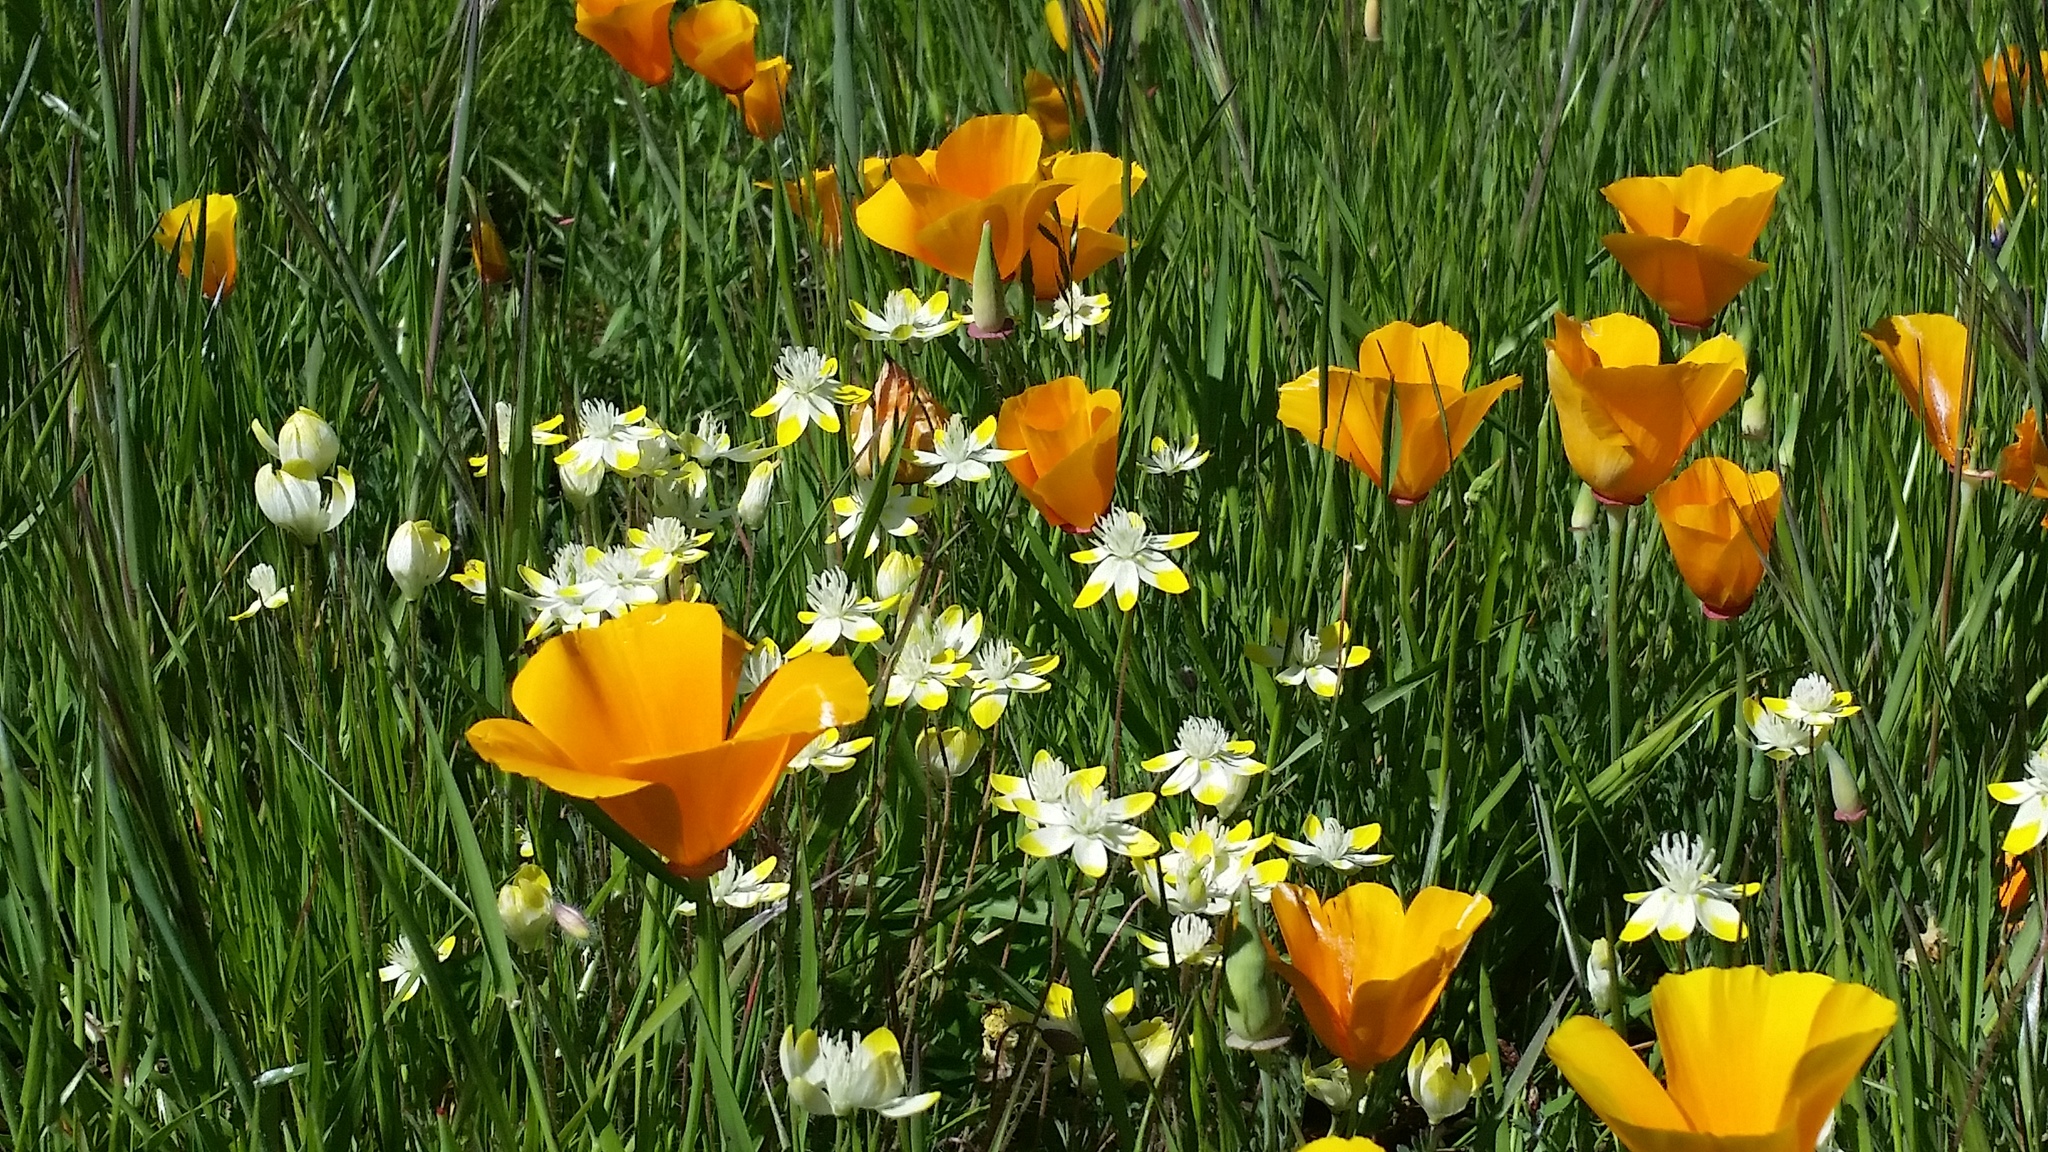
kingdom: Plantae
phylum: Tracheophyta
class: Magnoliopsida
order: Ranunculales
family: Papaveraceae
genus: Eschscholzia
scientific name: Eschscholzia californica
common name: California poppy
